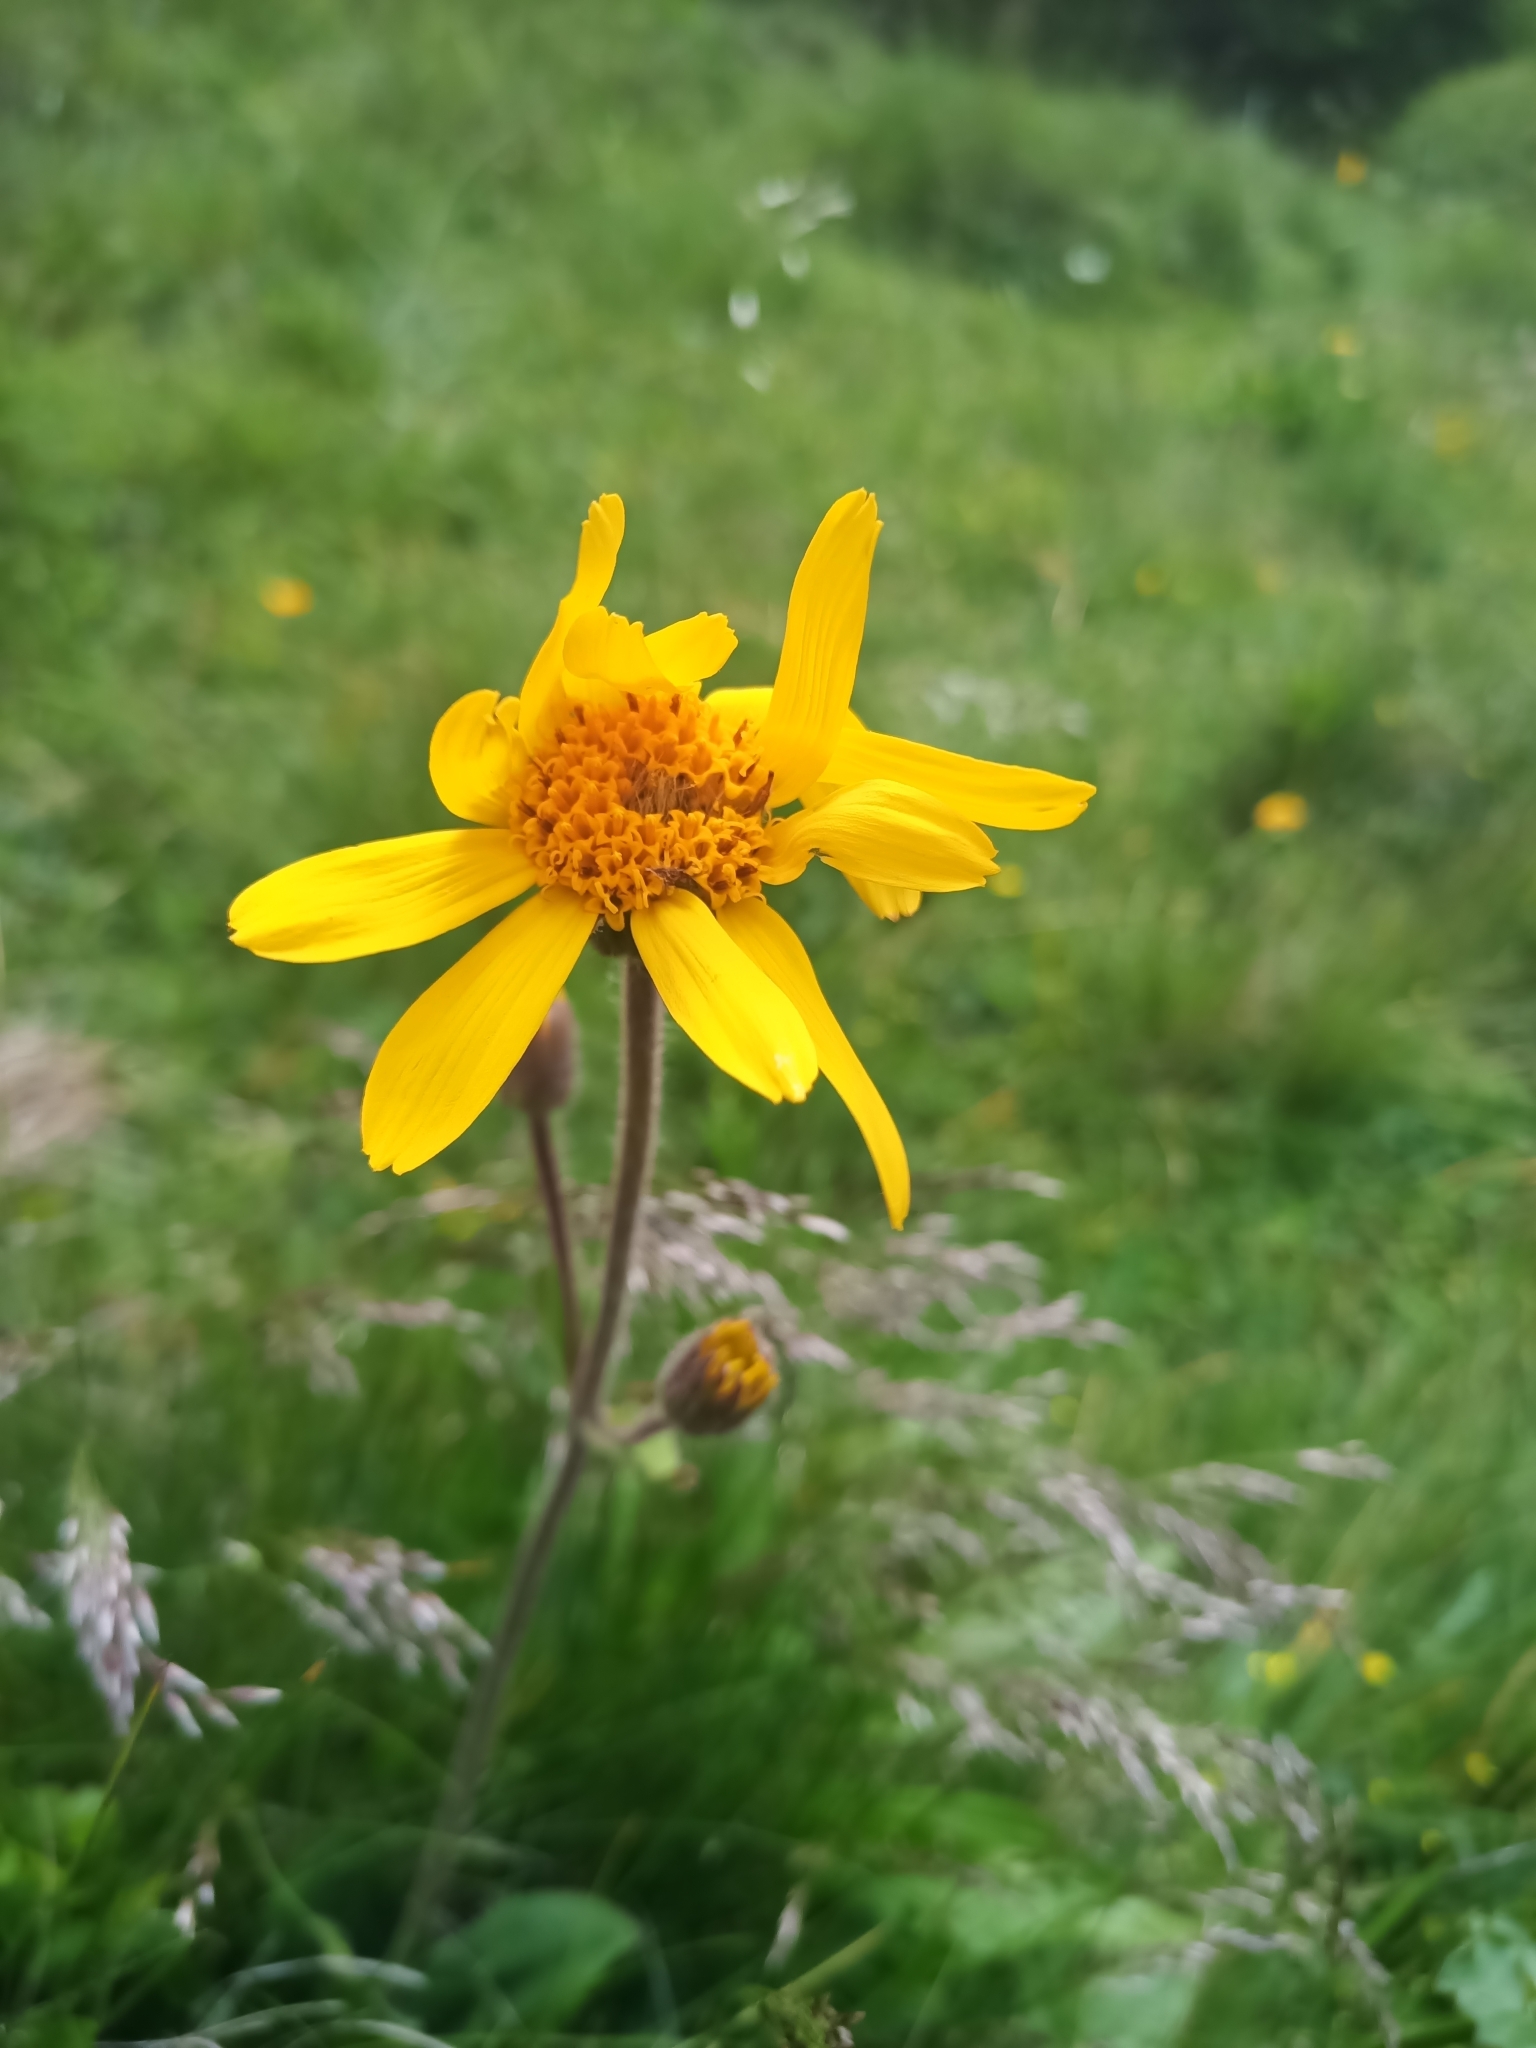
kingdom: Plantae
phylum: Tracheophyta
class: Magnoliopsida
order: Asterales
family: Asteraceae
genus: Arnica
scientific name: Arnica montana
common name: Leopard's bane
